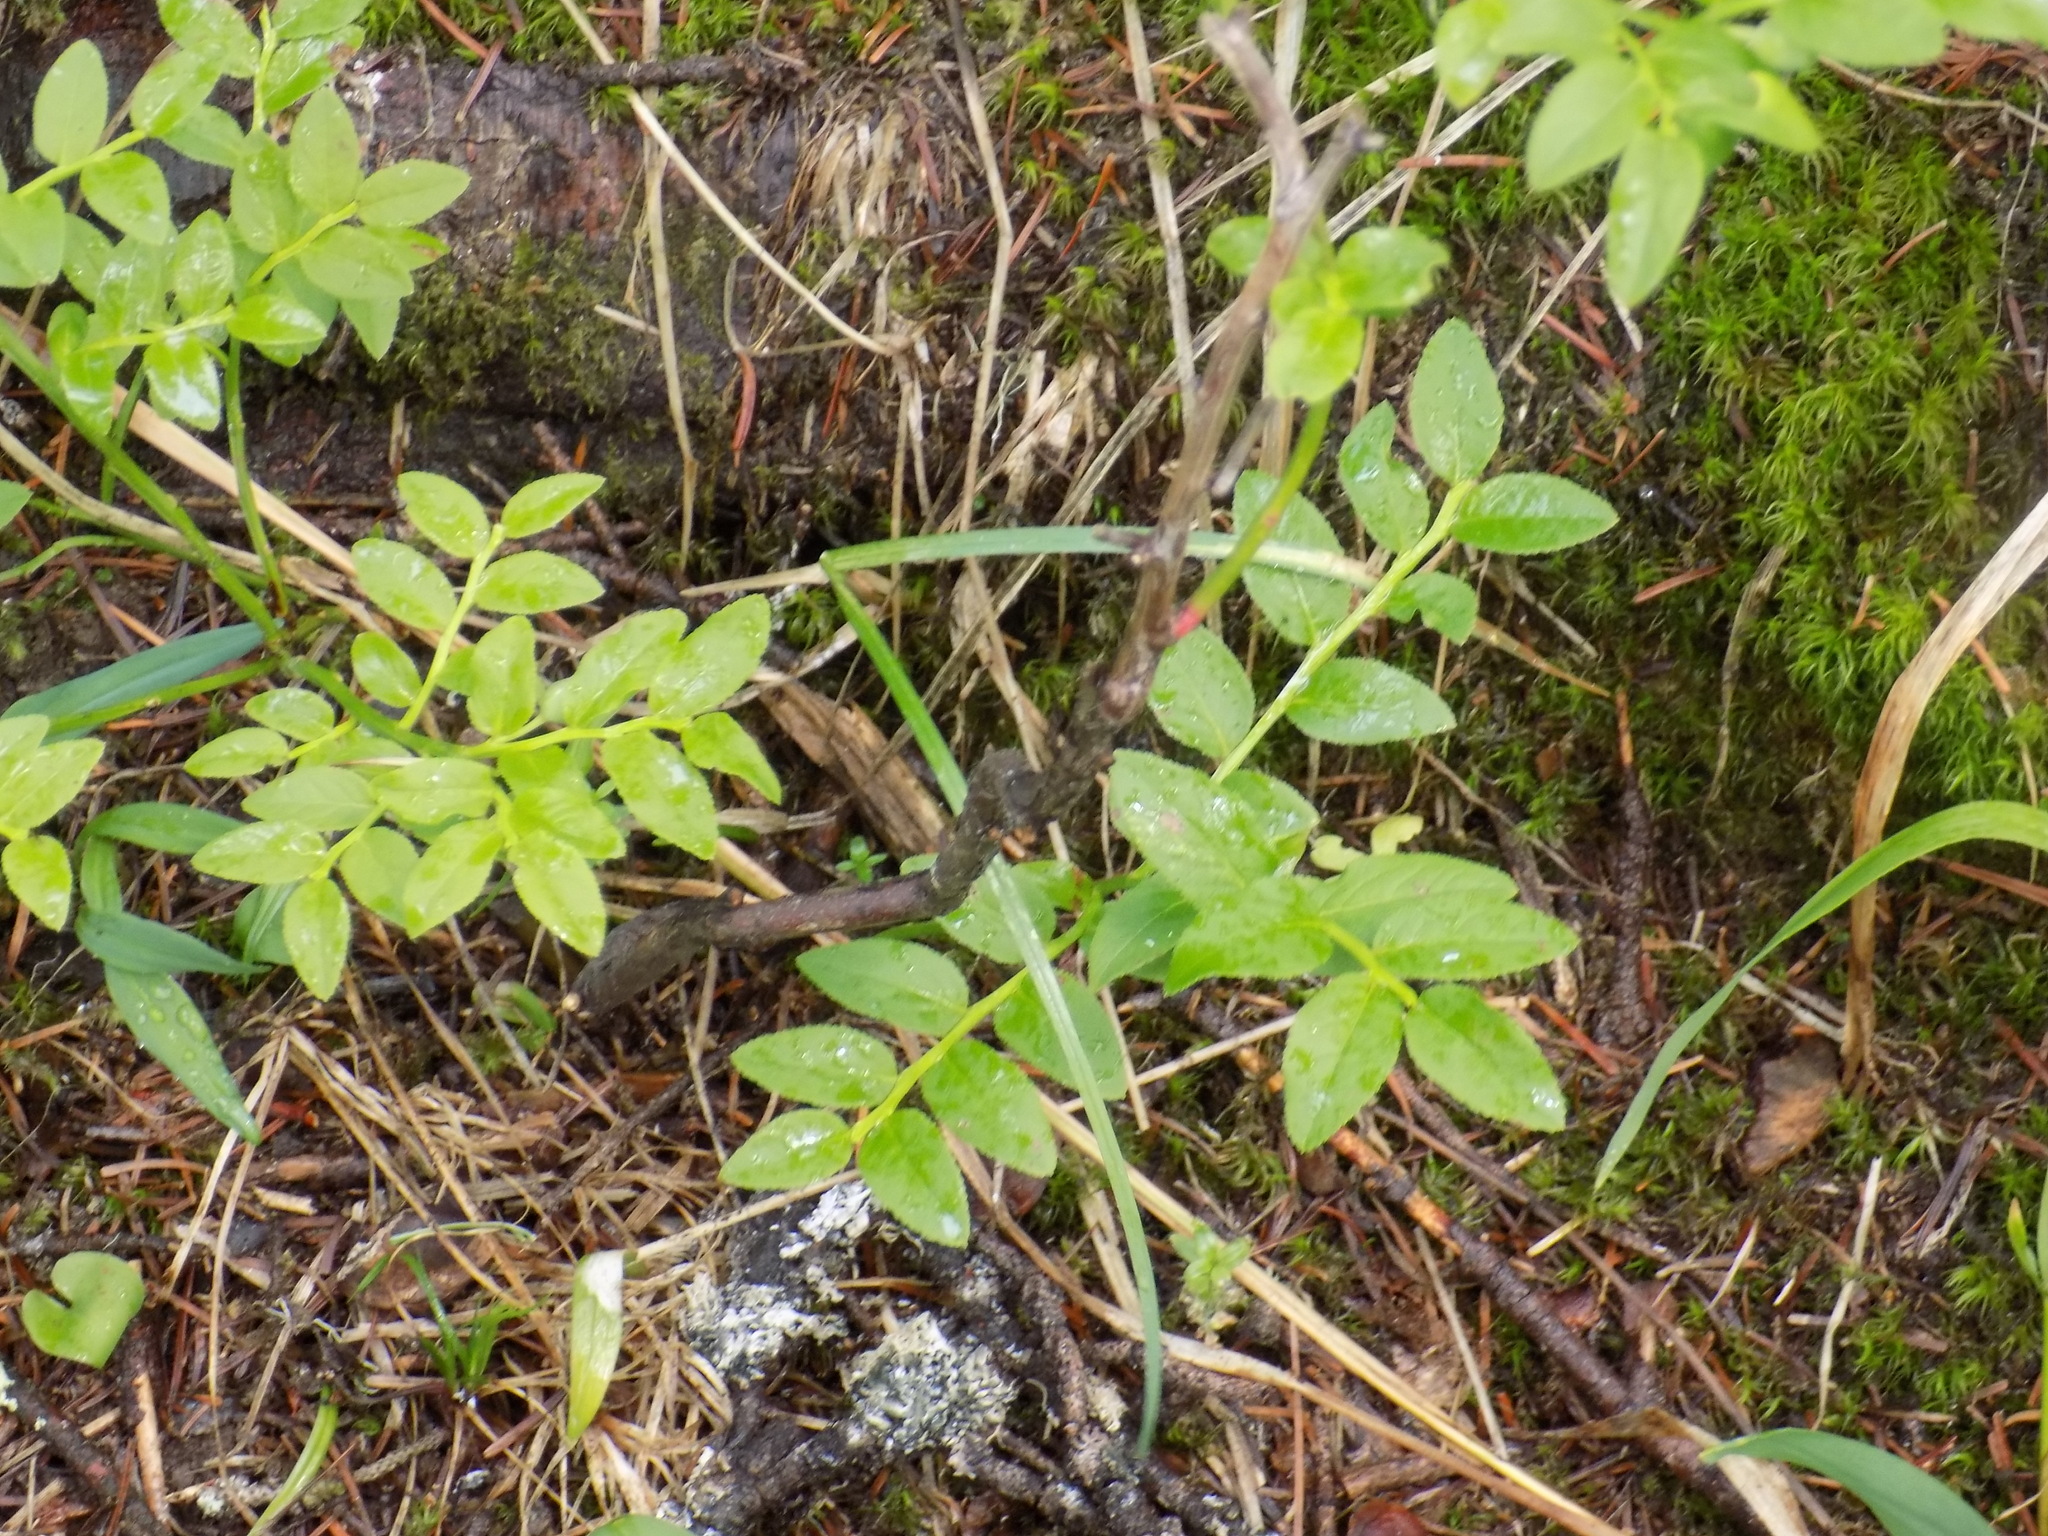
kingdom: Plantae
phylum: Tracheophyta
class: Magnoliopsida
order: Ericales
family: Ericaceae
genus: Vaccinium
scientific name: Vaccinium myrtillus
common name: Bilberry
